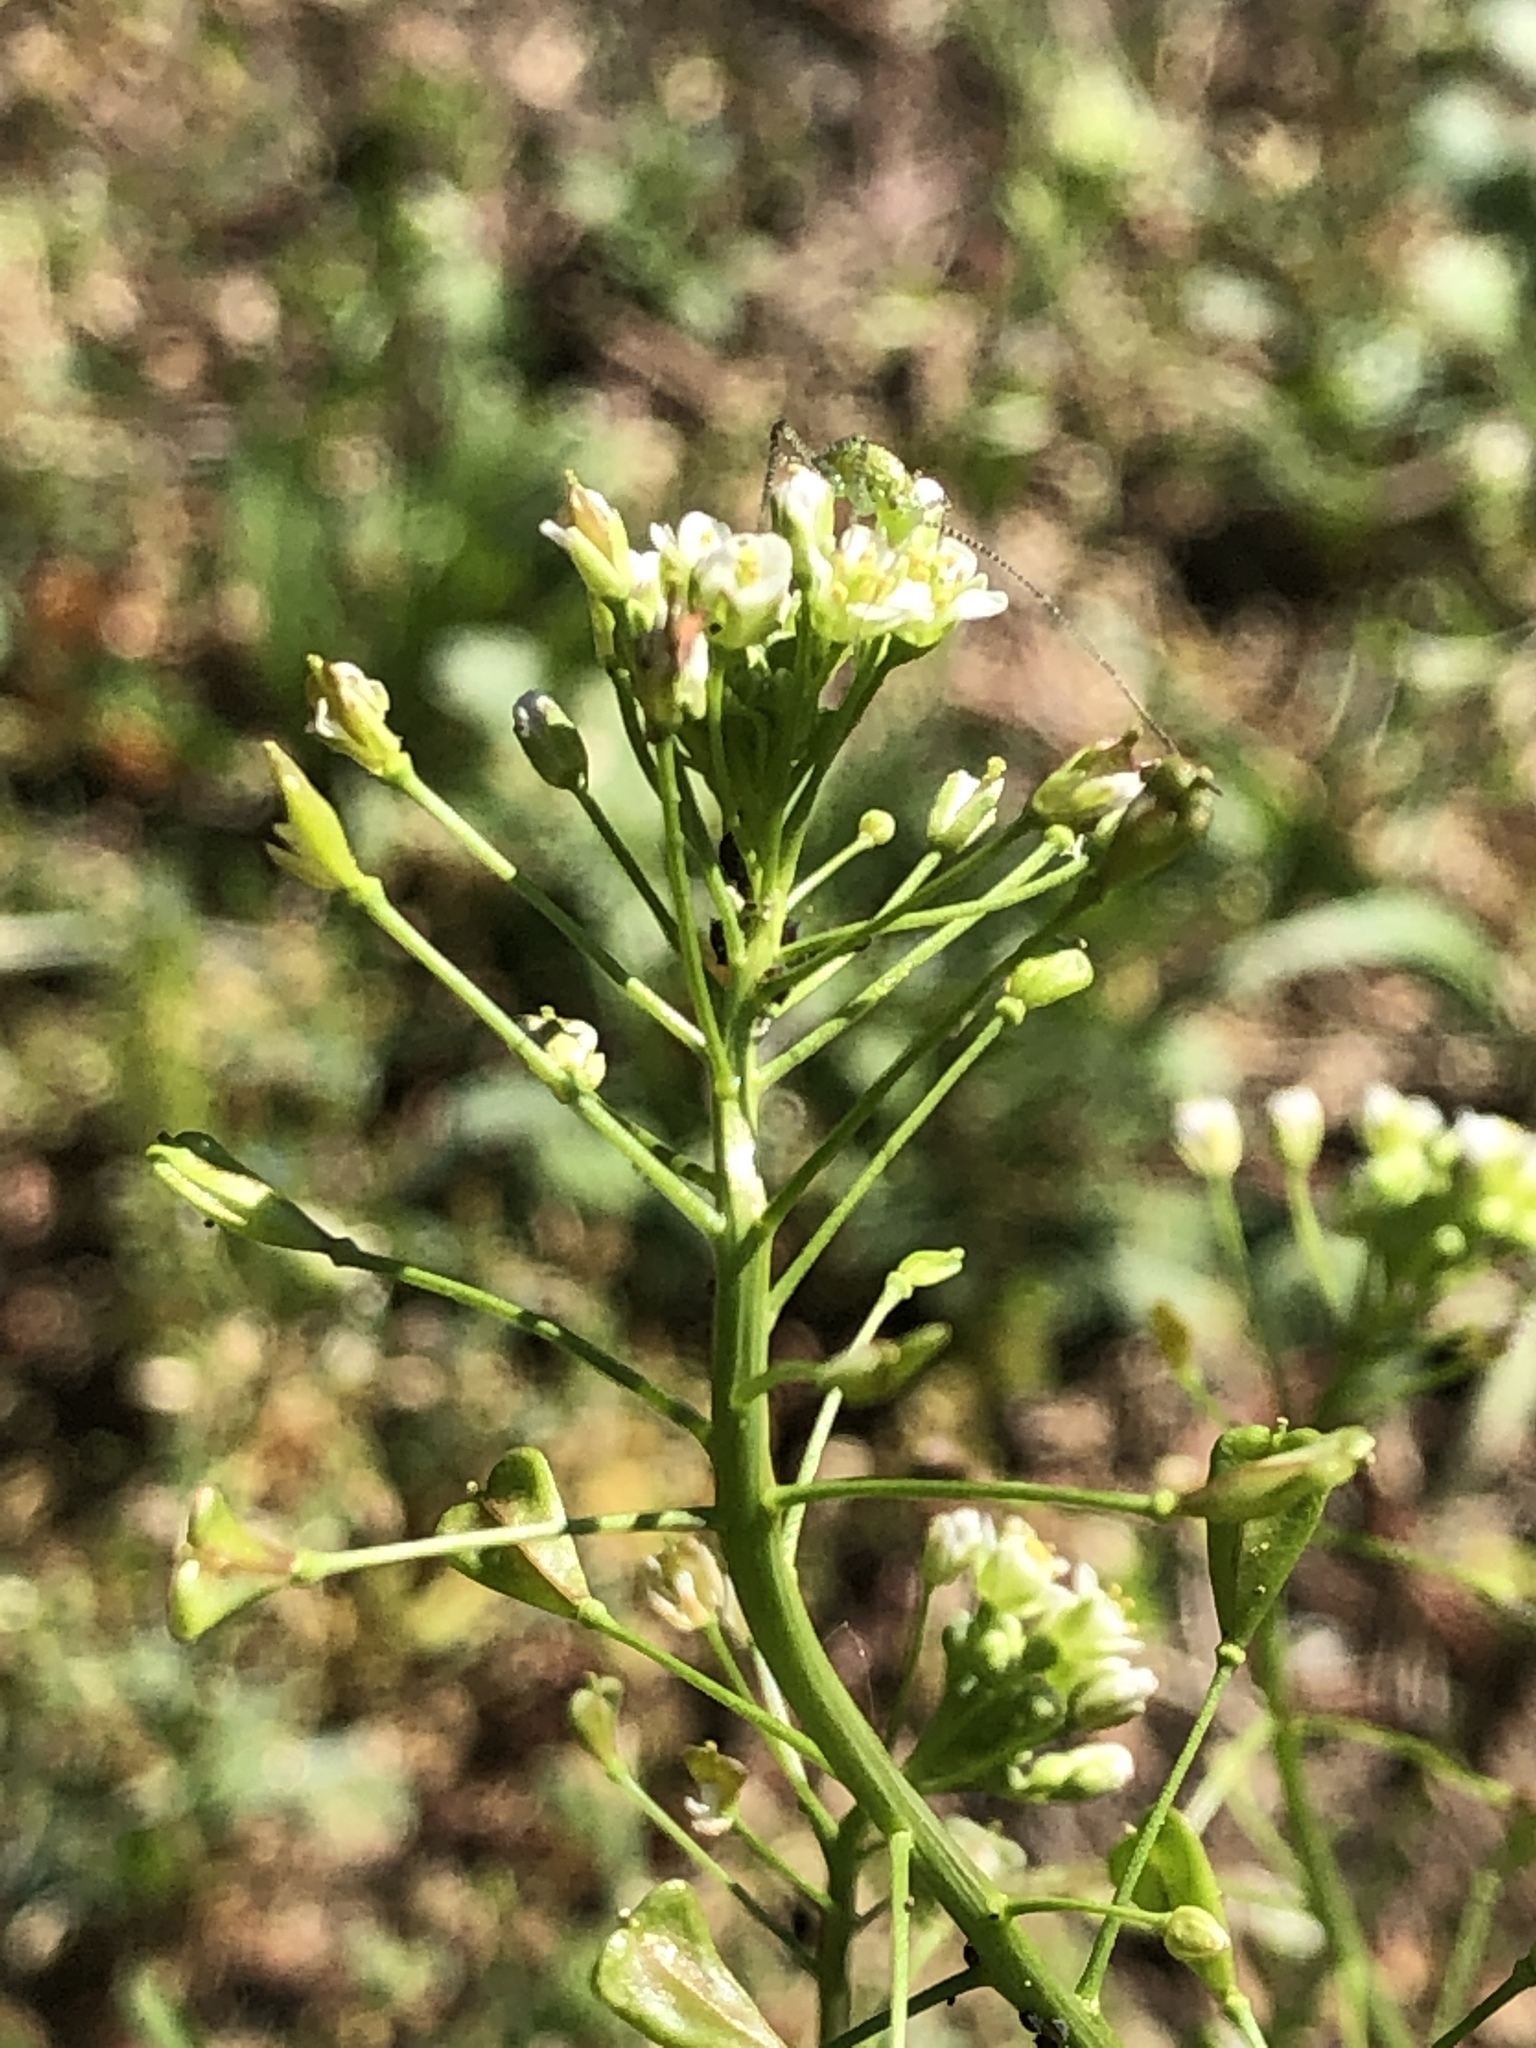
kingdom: Plantae
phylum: Tracheophyta
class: Magnoliopsida
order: Brassicales
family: Brassicaceae
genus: Capsella
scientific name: Capsella bursa-pastoris
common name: Shepherd's purse
